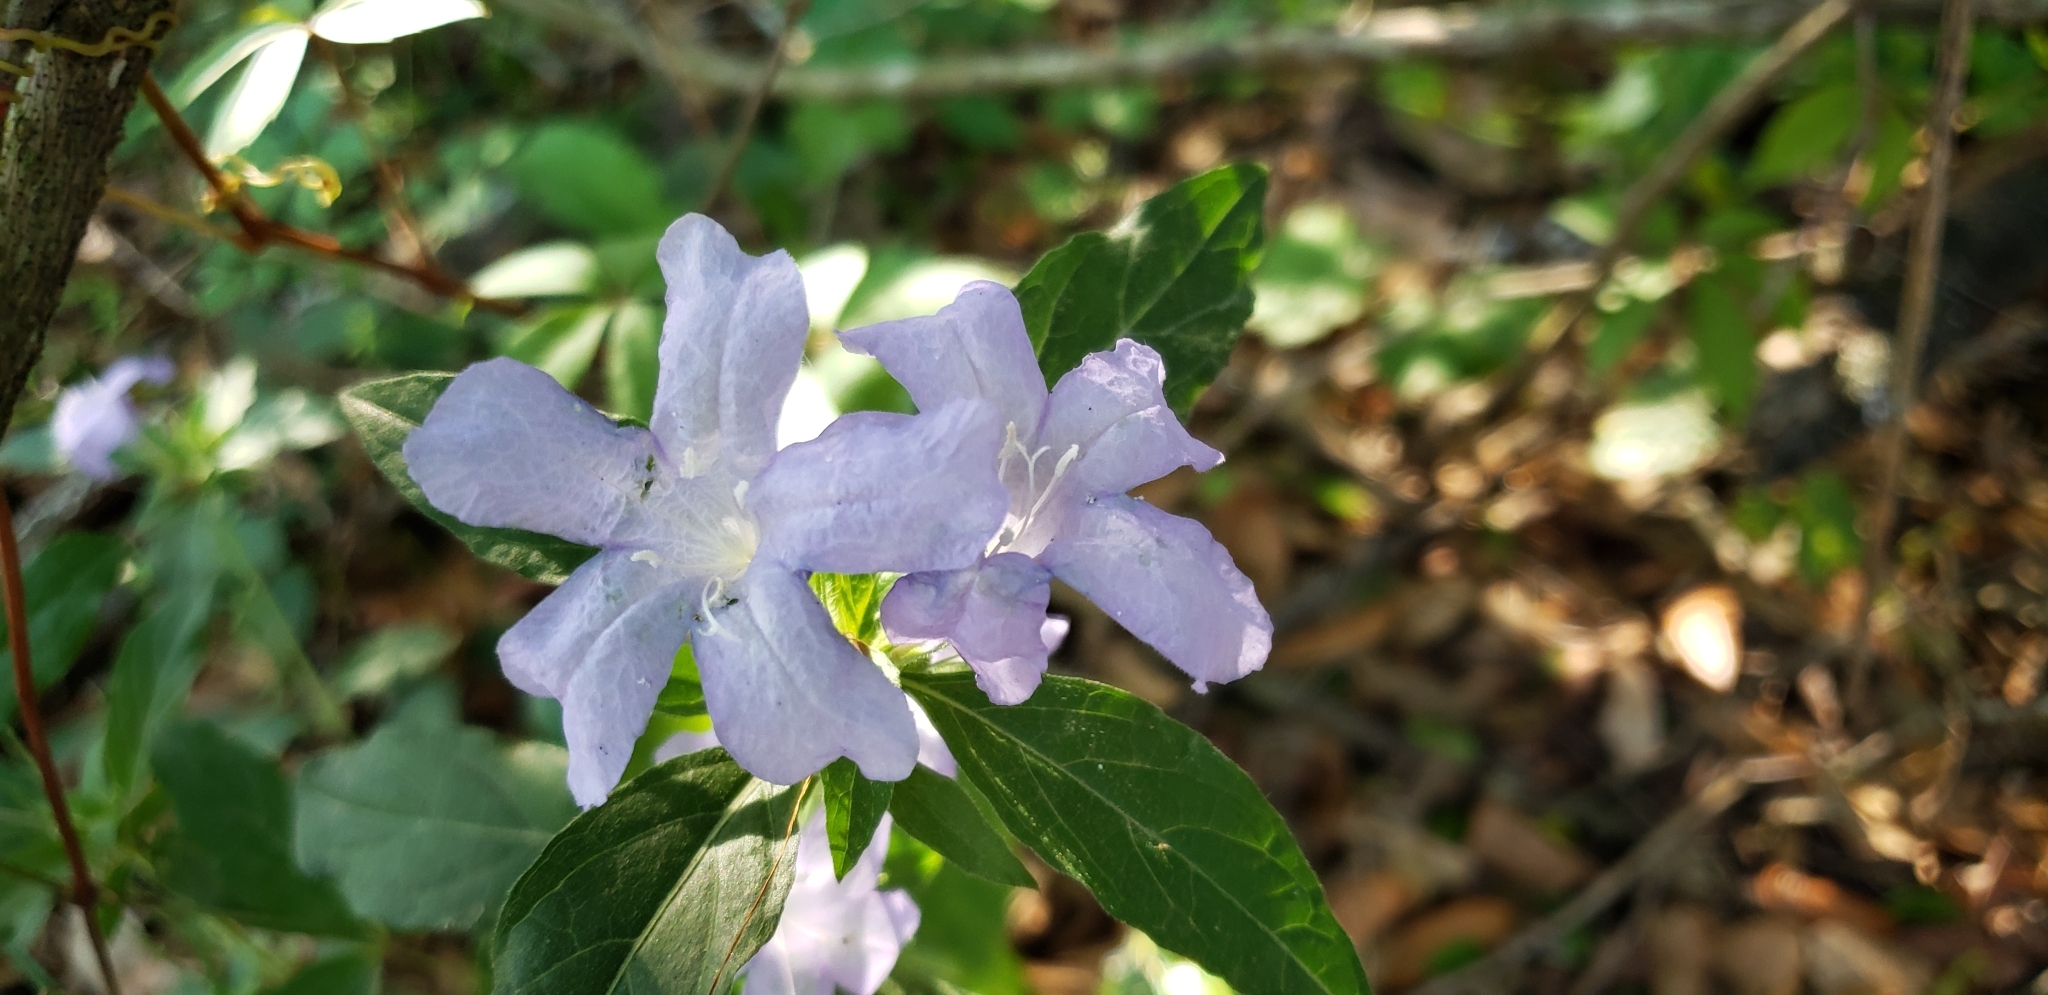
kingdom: Plantae
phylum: Tracheophyta
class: Magnoliopsida
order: Lamiales
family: Acanthaceae
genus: Ruellia
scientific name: Ruellia caroliniensis
